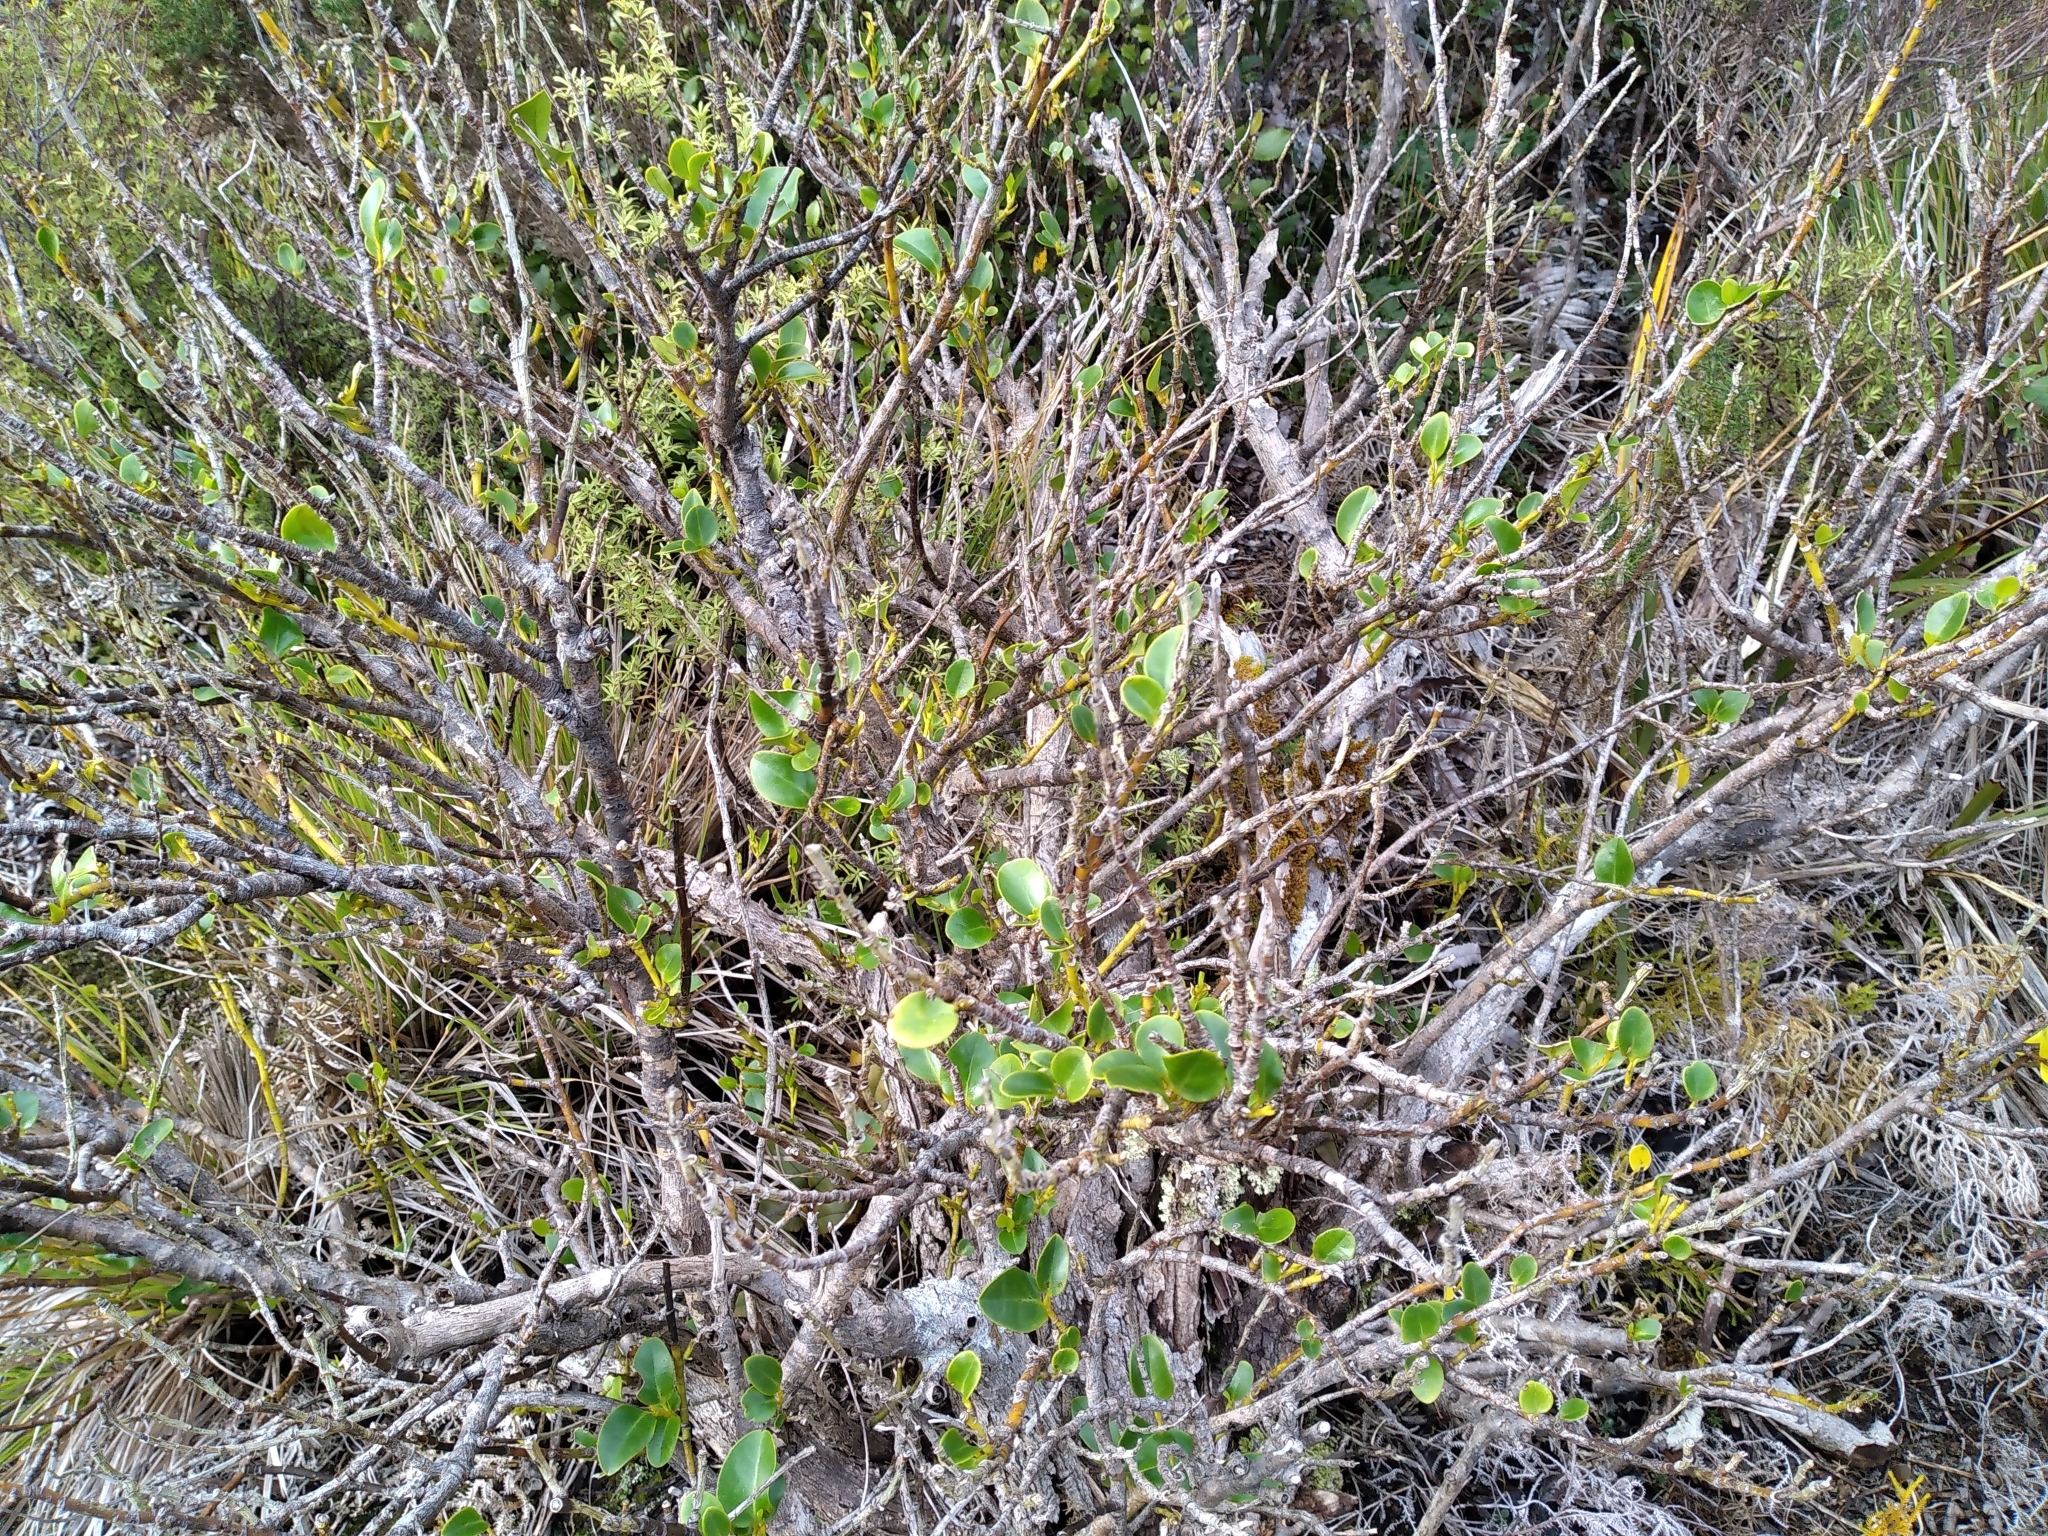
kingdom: Plantae
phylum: Tracheophyta
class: Magnoliopsida
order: Apiales
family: Griseliniaceae
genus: Griselinia
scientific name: Griselinia littoralis
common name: New zealand broadleaf
